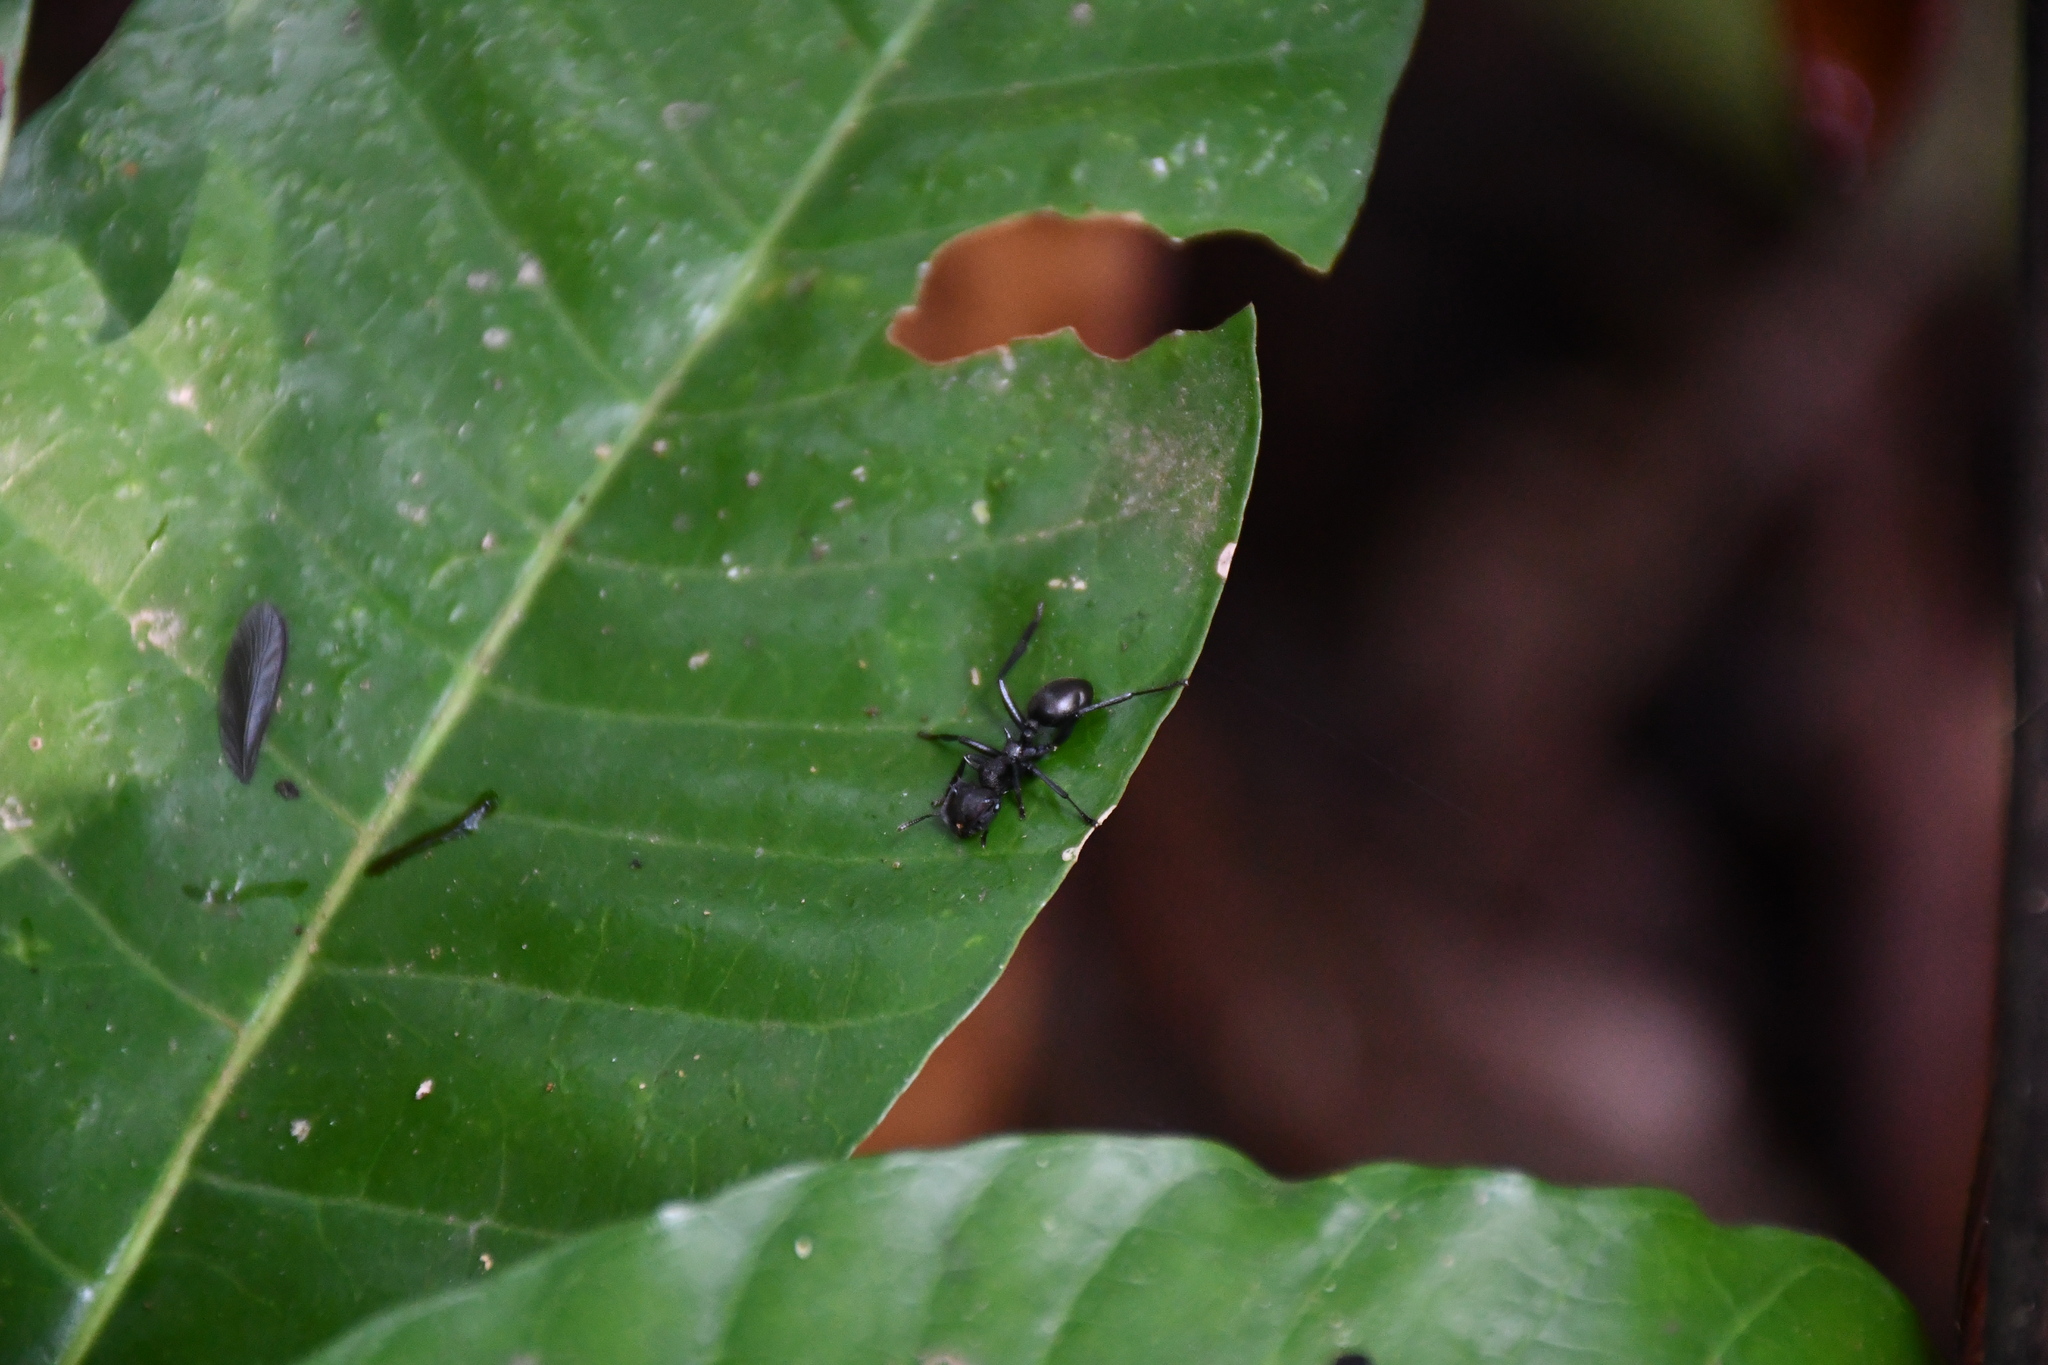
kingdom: Animalia
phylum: Arthropoda
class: Insecta
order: Hymenoptera
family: Formicidae
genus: Cephalotes
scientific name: Cephalotes atratus
